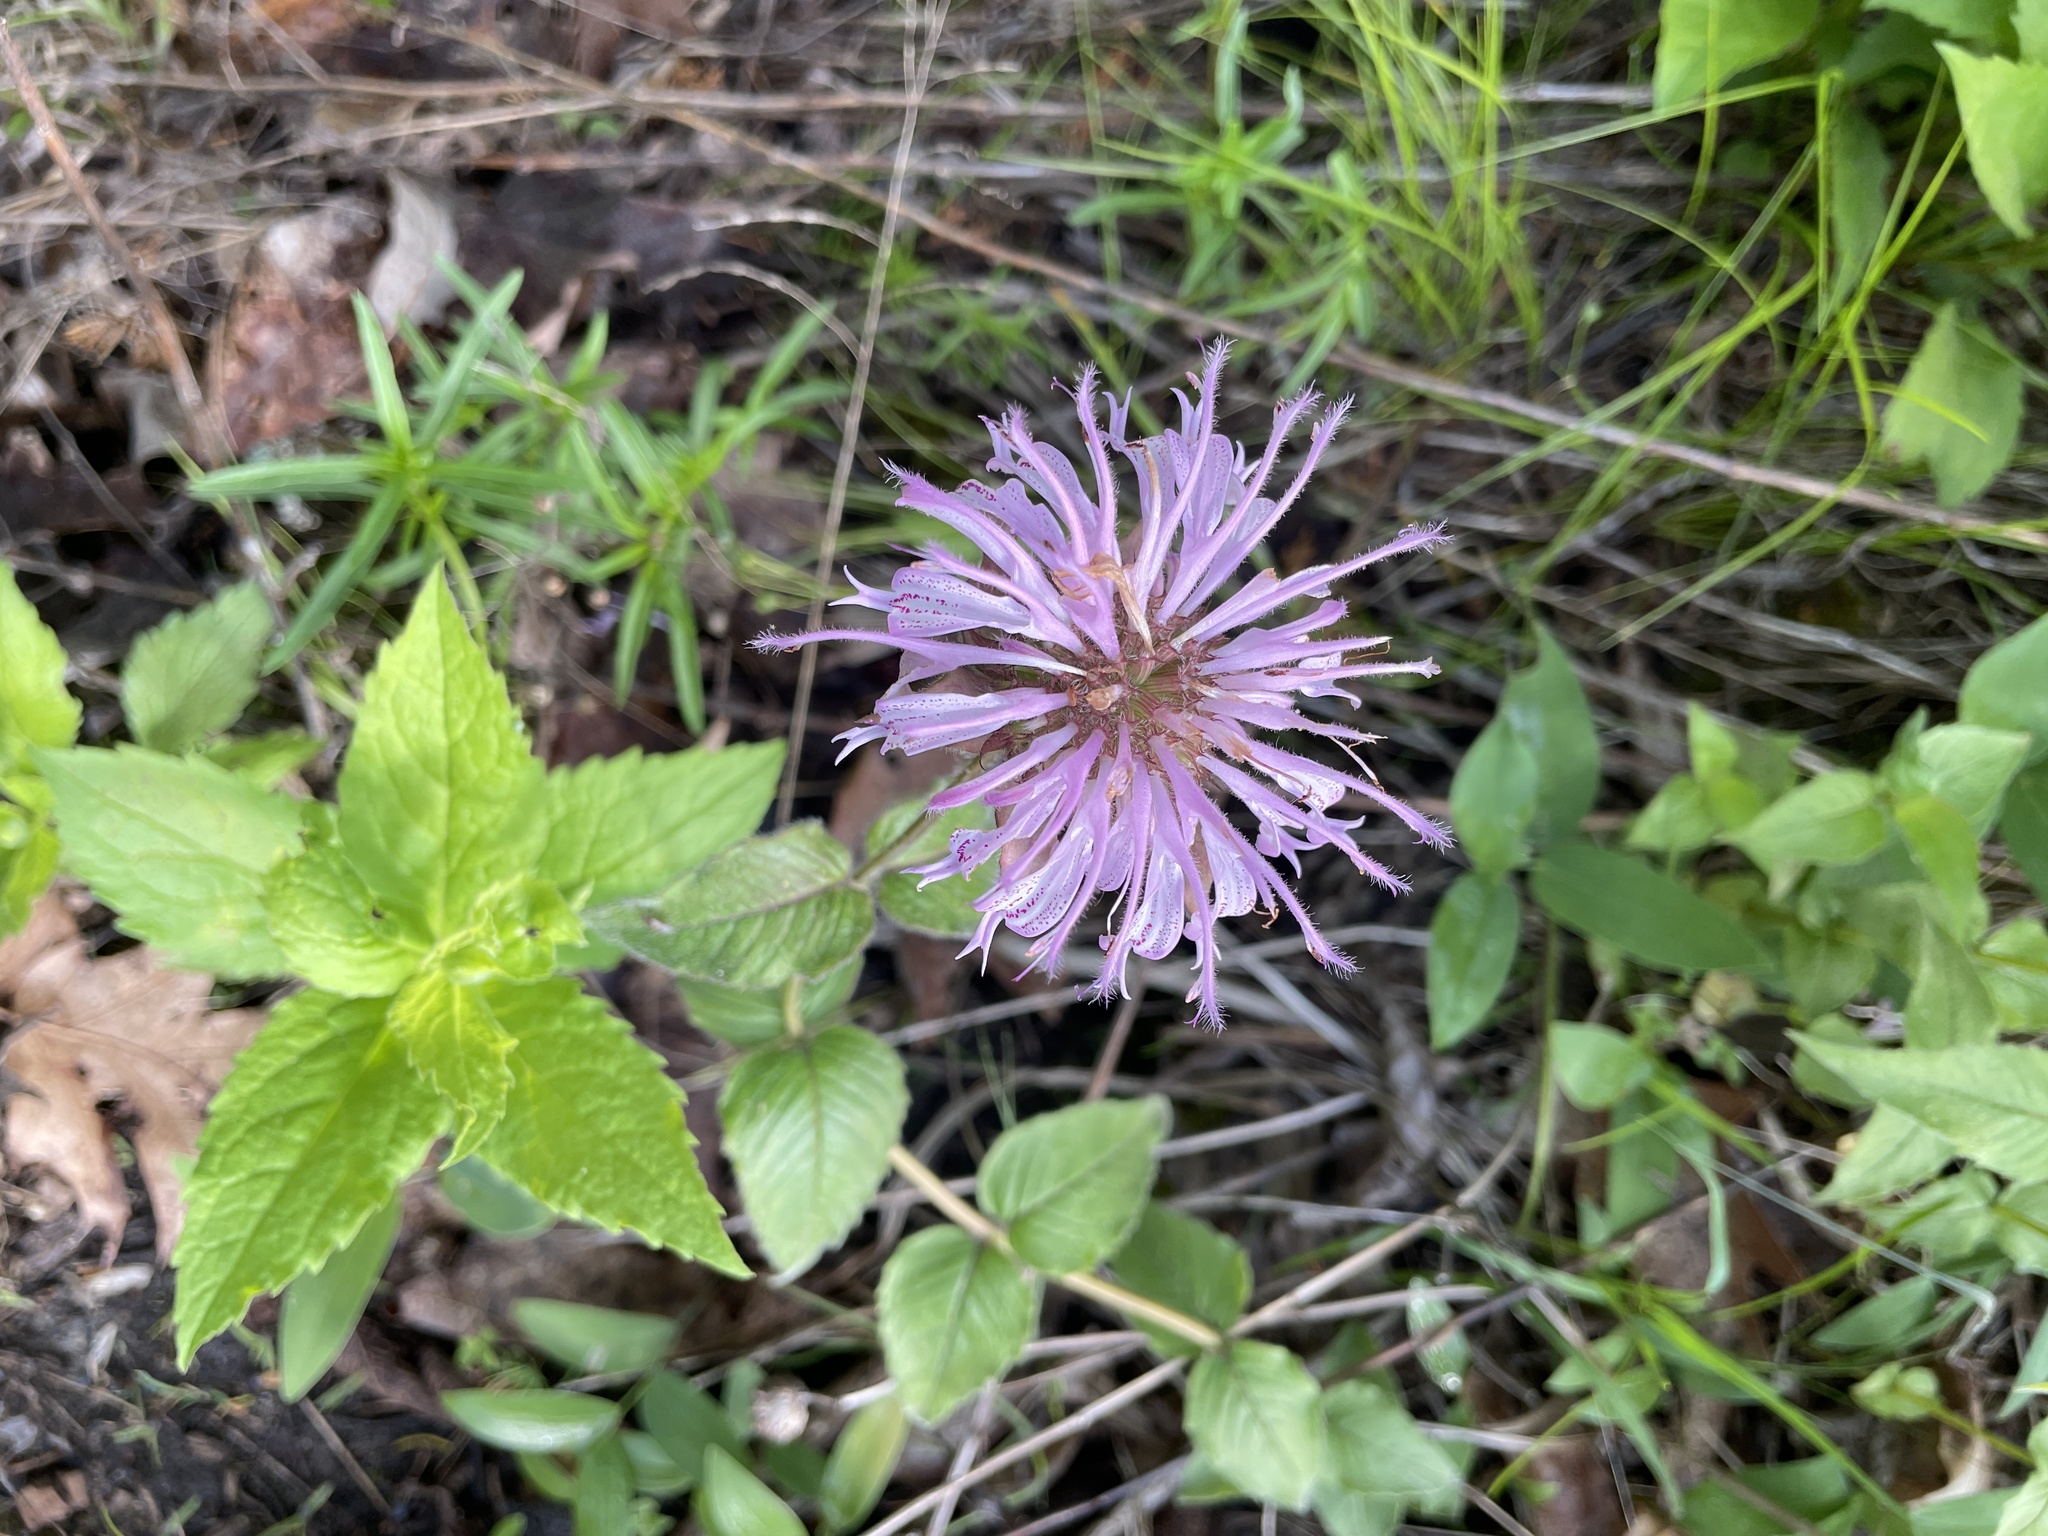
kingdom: Plantae
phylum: Tracheophyta
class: Magnoliopsida
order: Lamiales
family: Lamiaceae
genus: Monarda
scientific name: Monarda bradburiana
